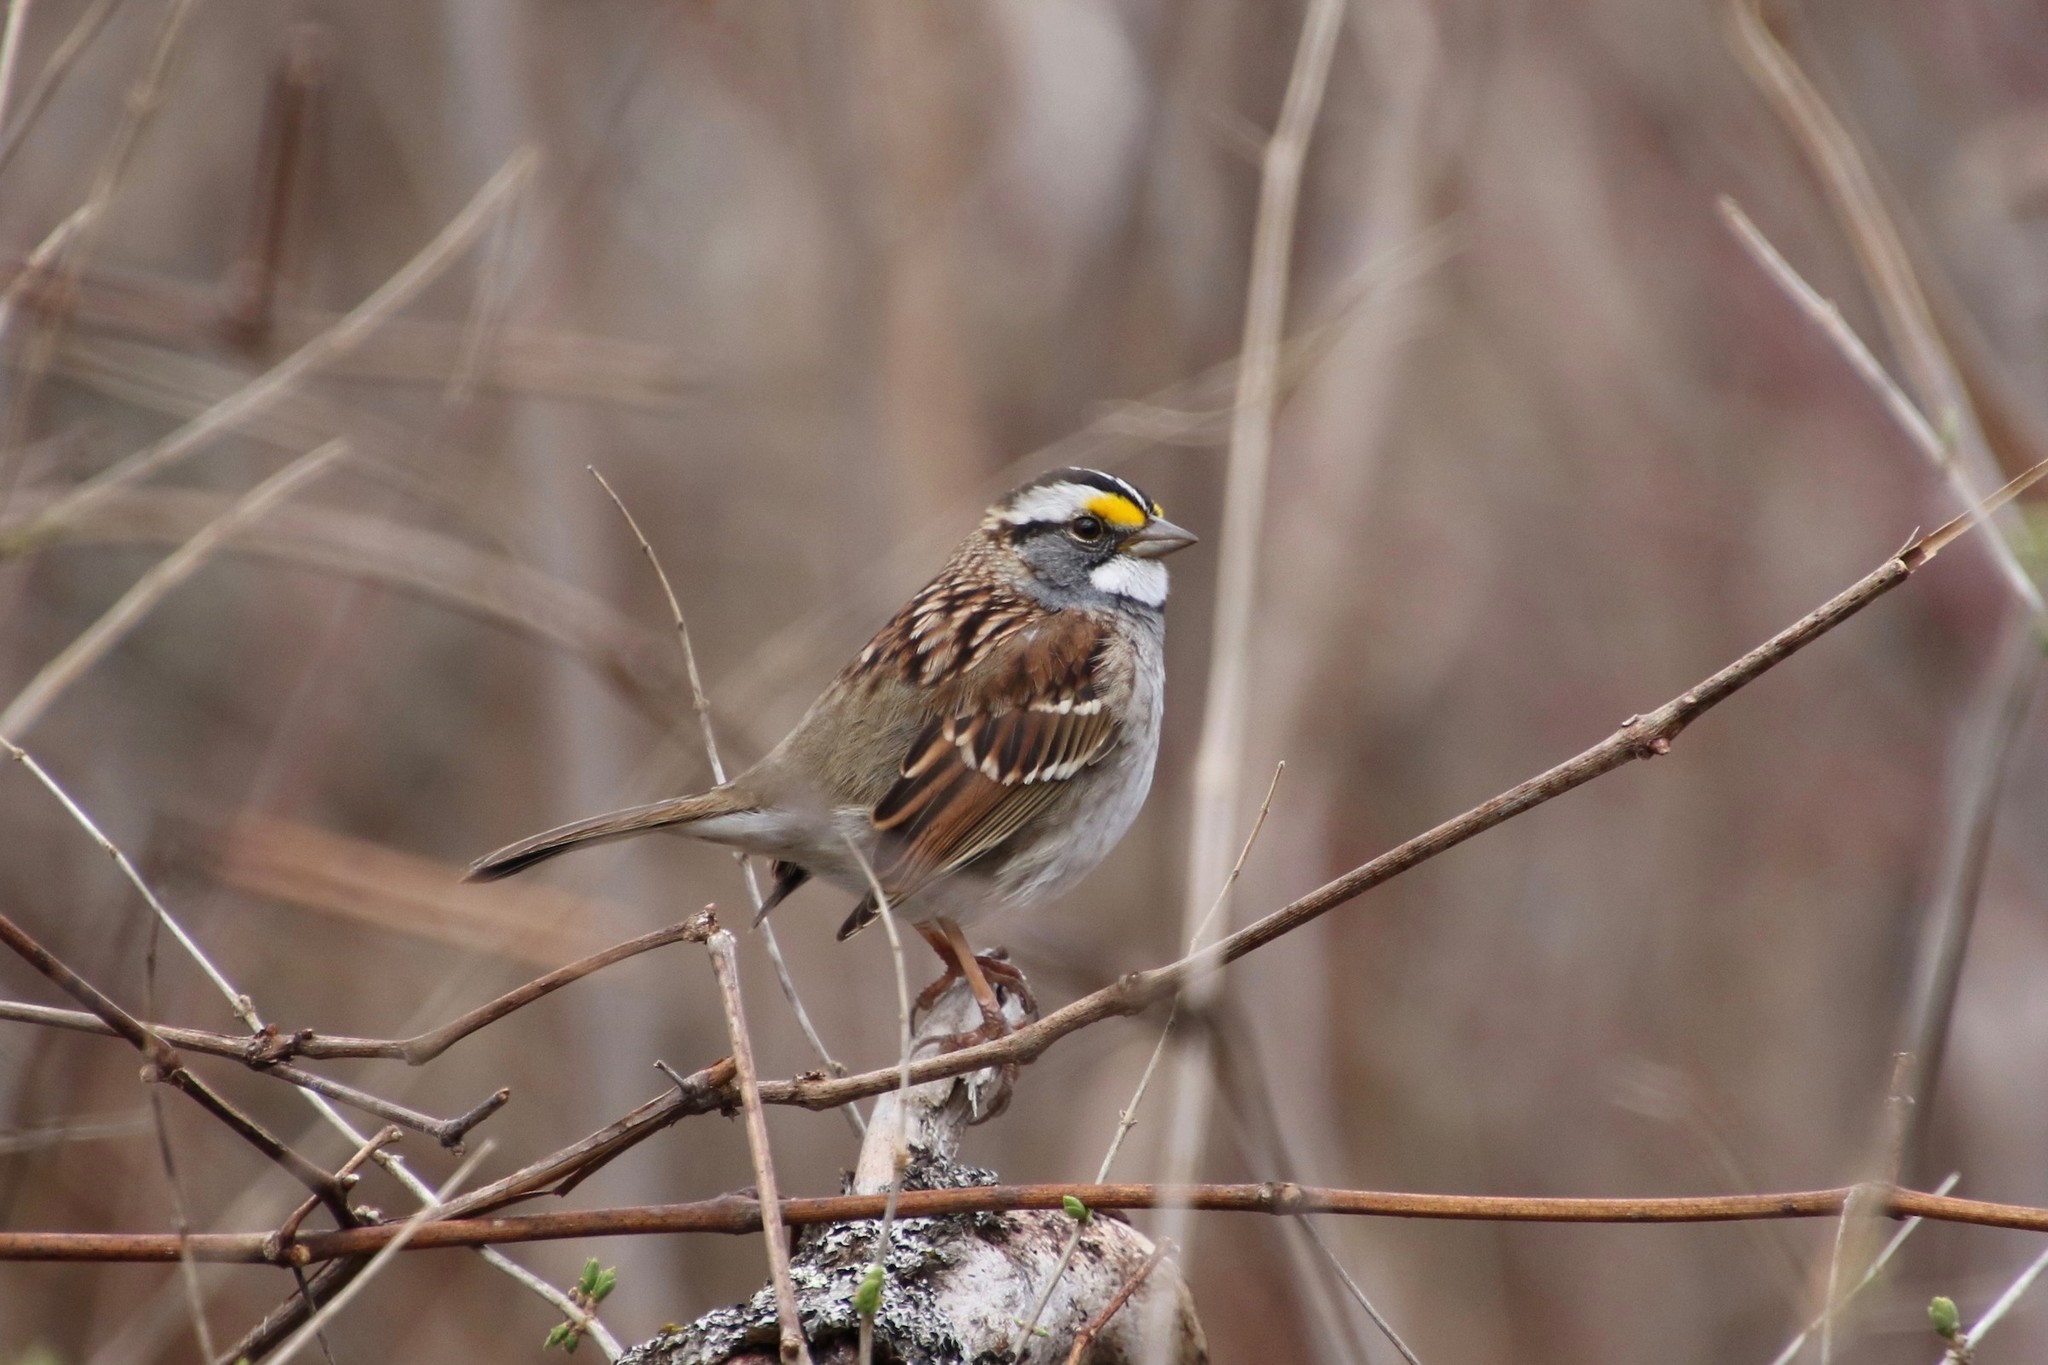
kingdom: Animalia
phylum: Chordata
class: Aves
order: Passeriformes
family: Passerellidae
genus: Zonotrichia
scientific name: Zonotrichia albicollis
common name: White-throated sparrow
